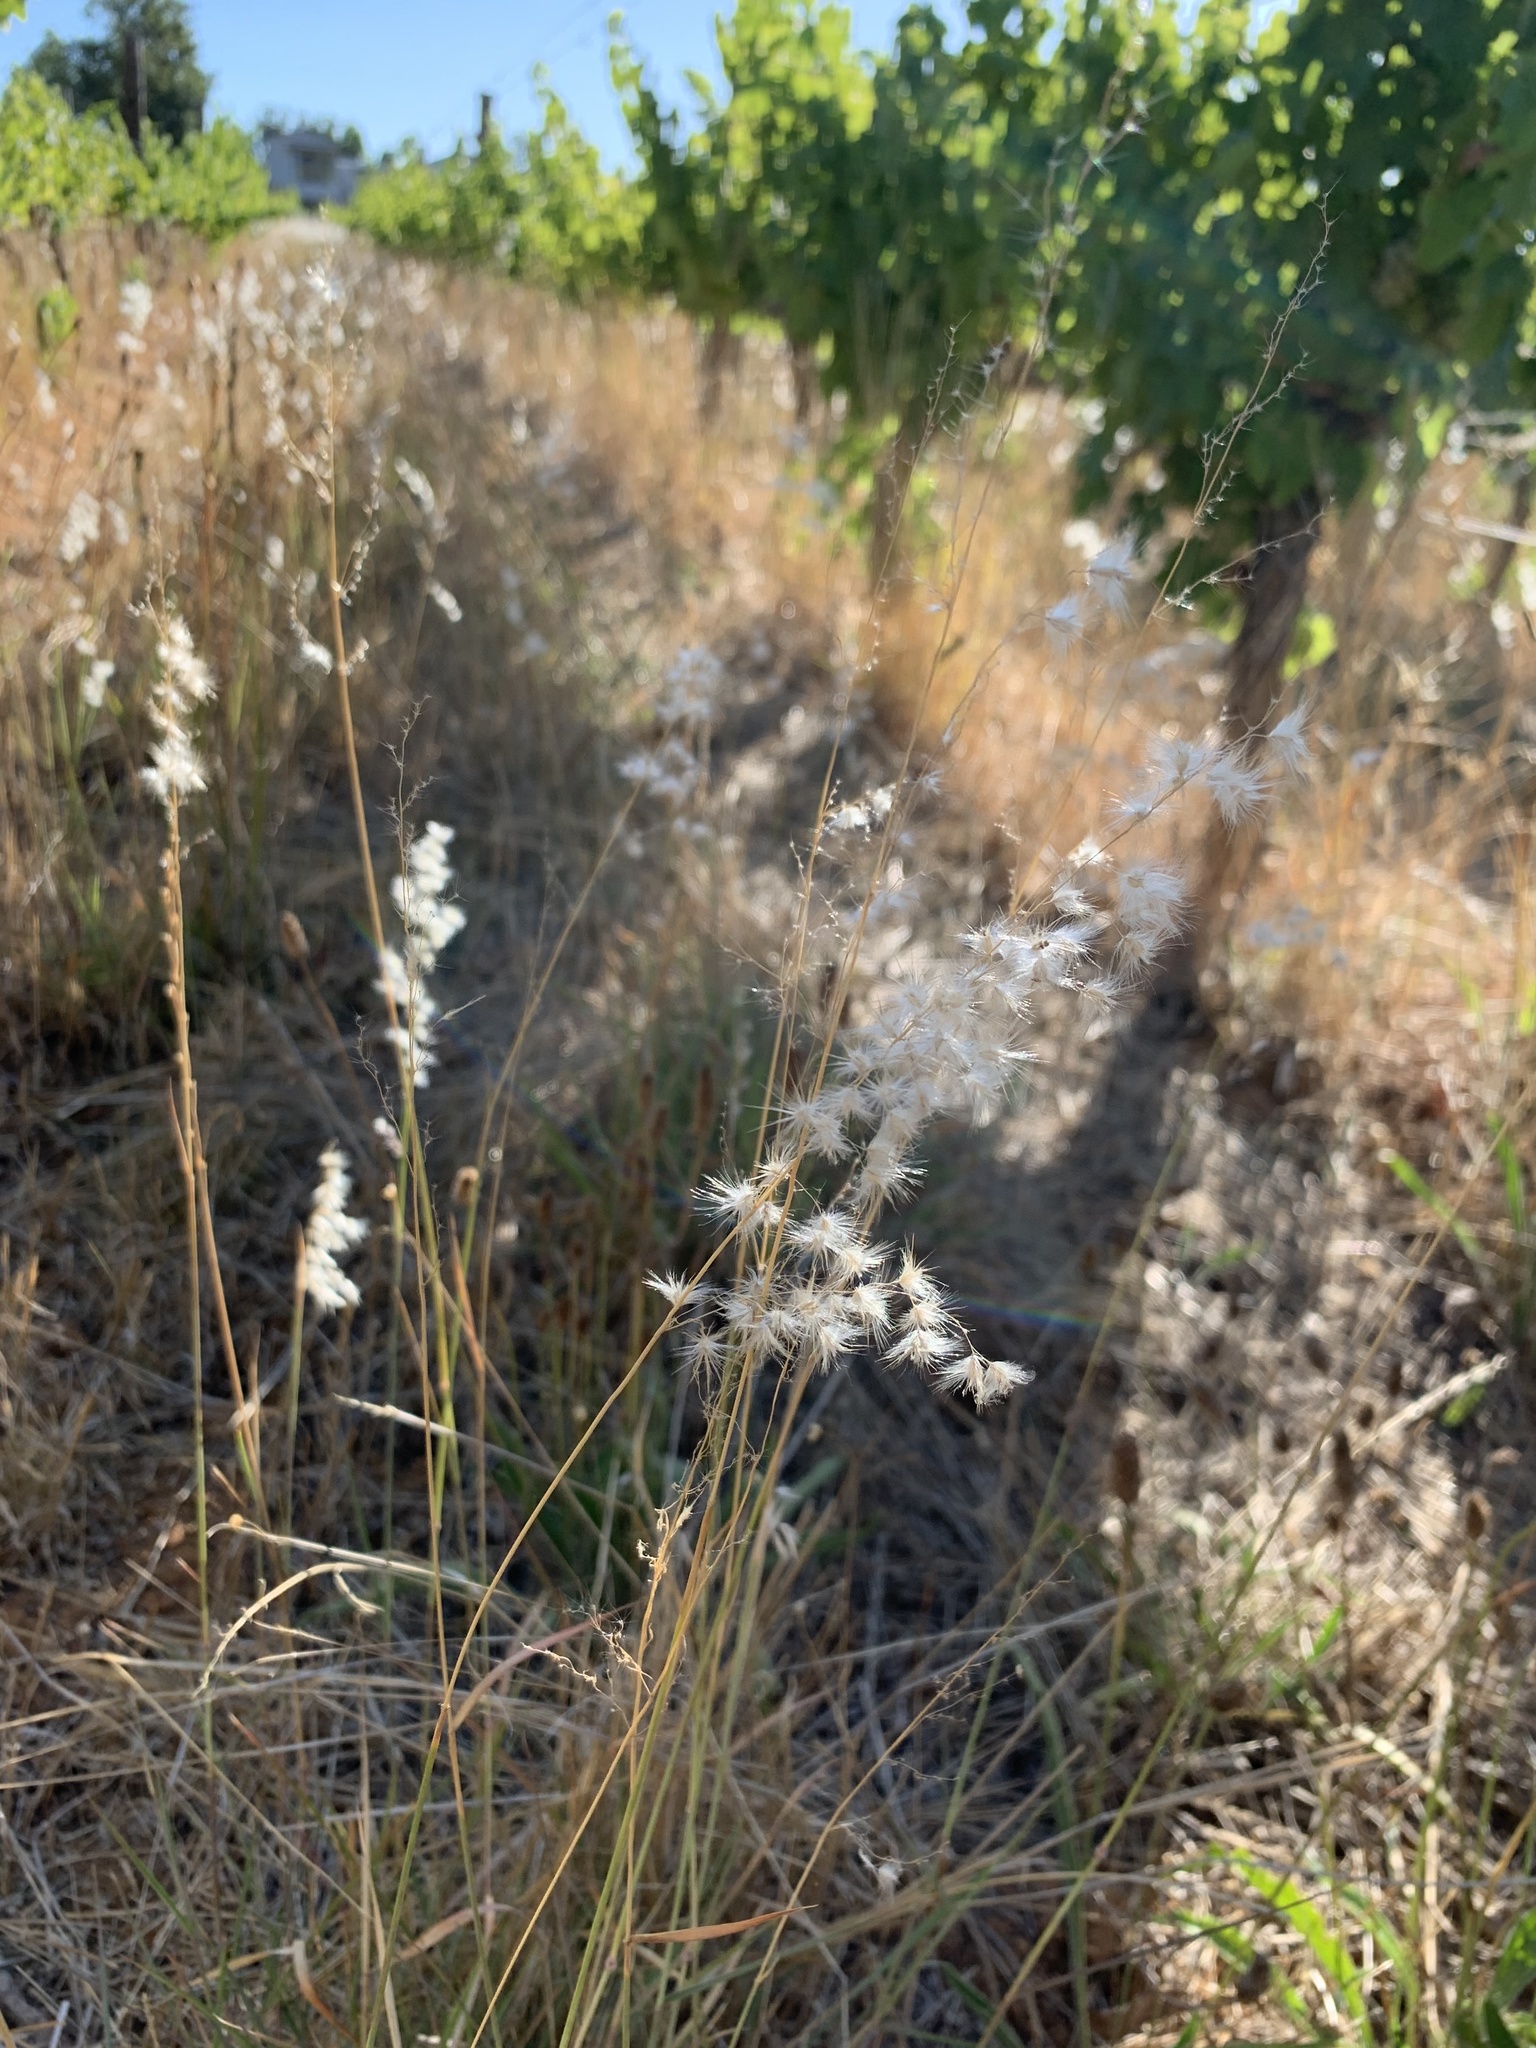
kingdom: Plantae
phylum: Tracheophyta
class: Liliopsida
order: Poales
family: Poaceae
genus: Melinis
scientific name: Melinis repens
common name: Rose natal grass
